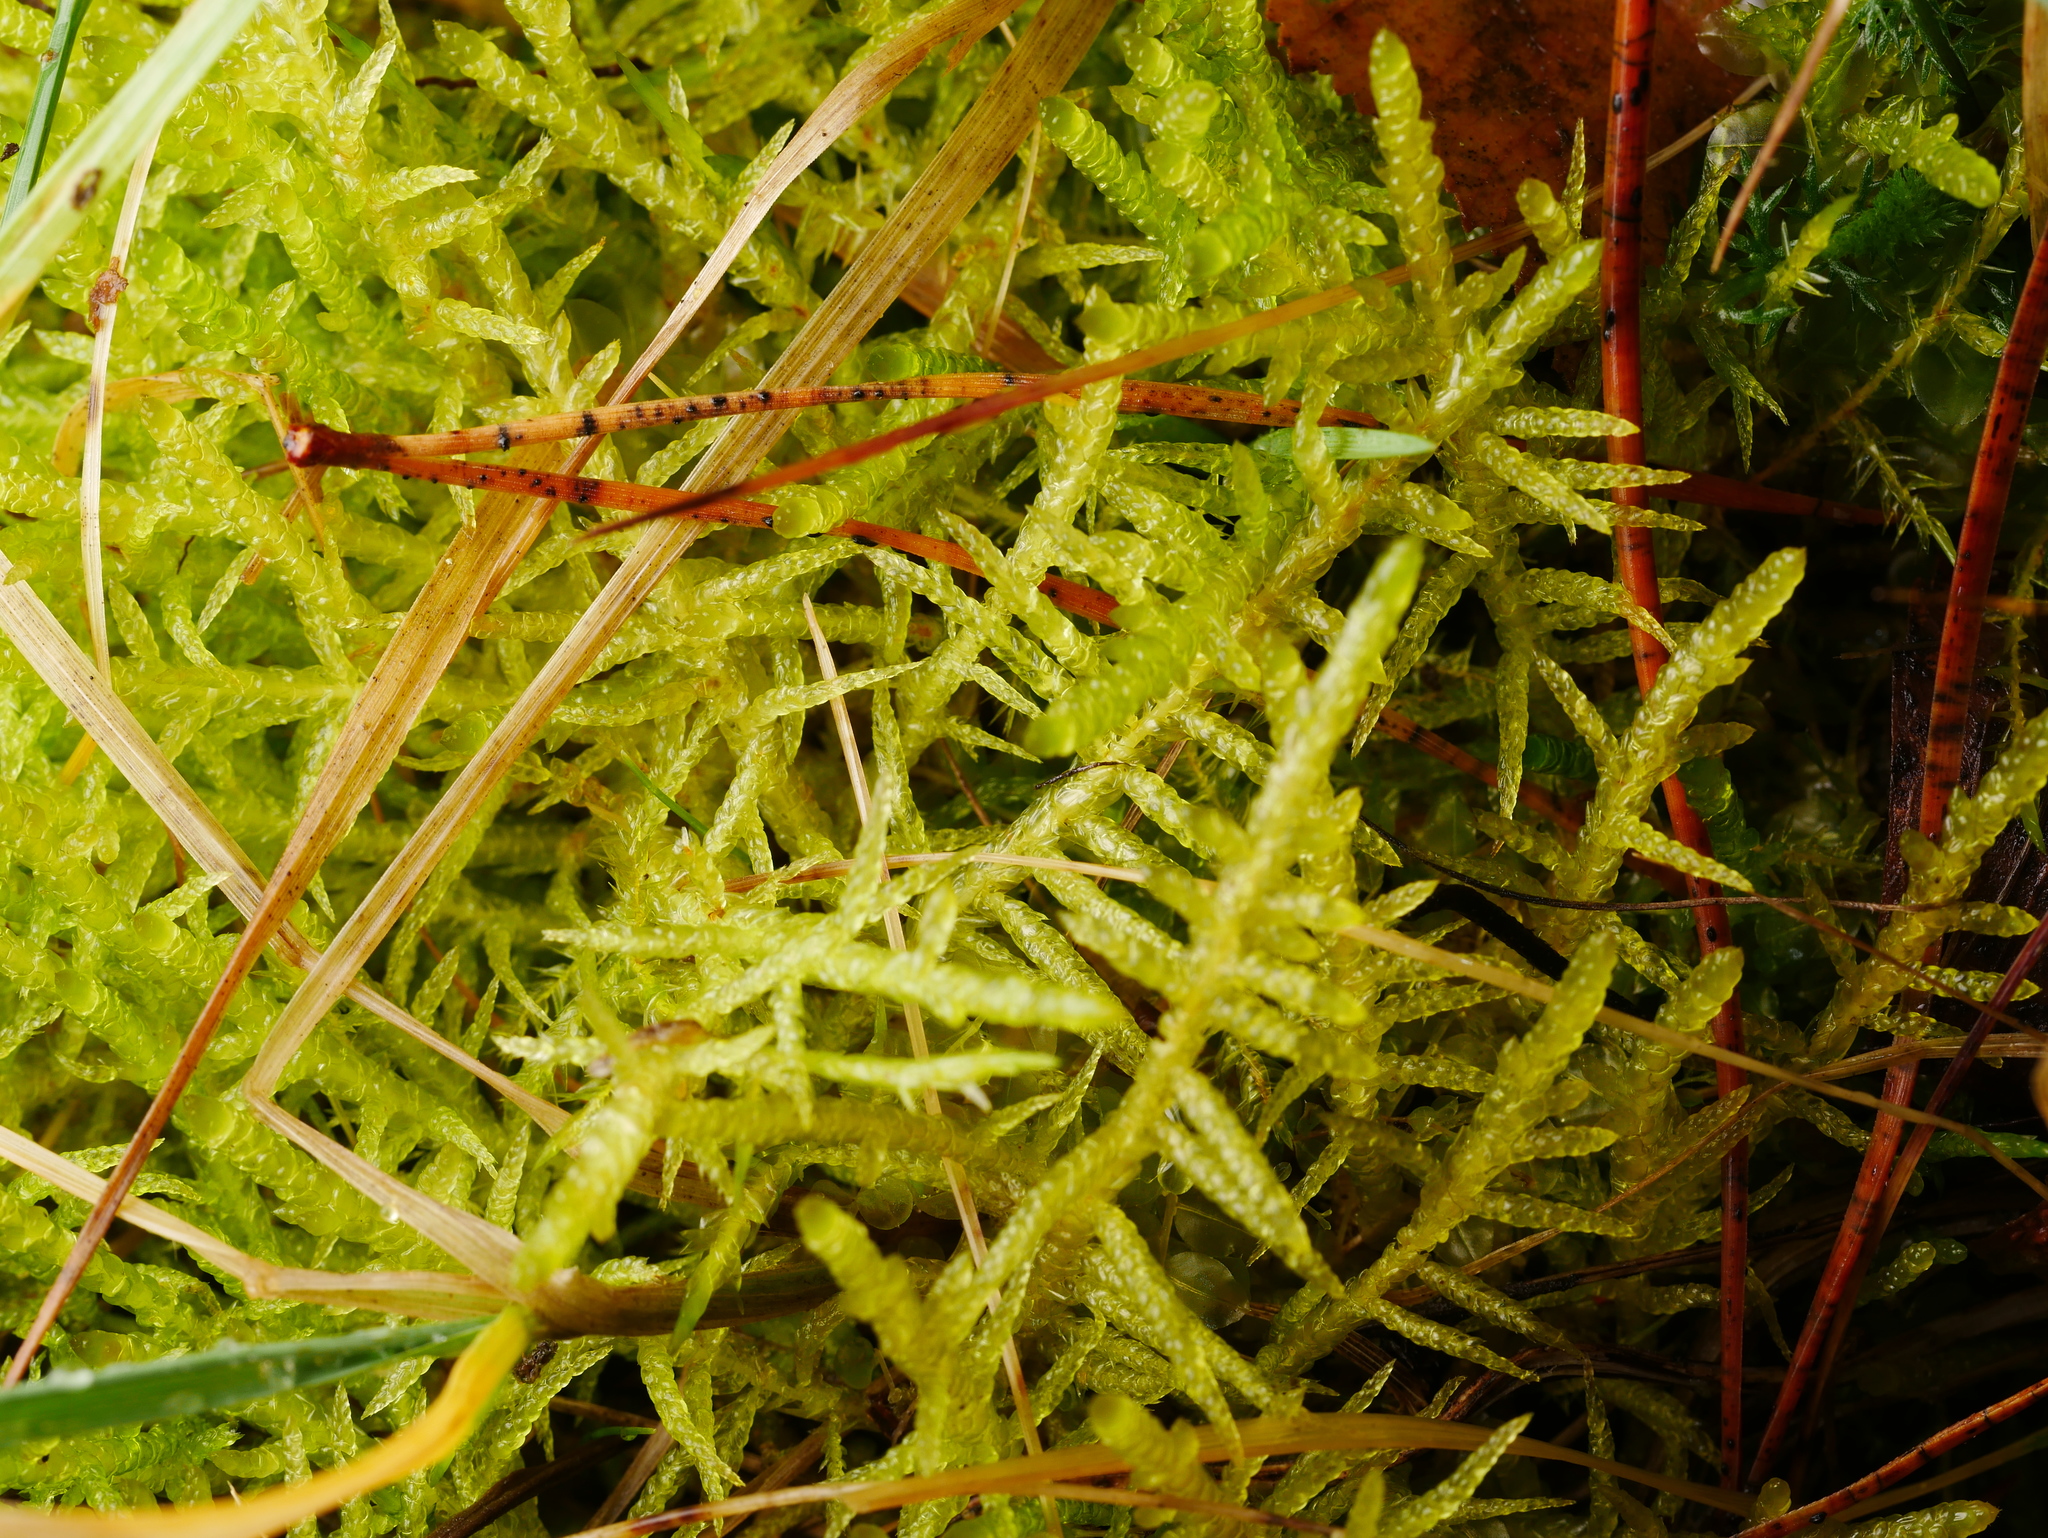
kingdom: Plantae
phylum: Bryophyta
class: Bryopsida
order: Hypnales
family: Brachytheciaceae
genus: Pseudoscleropodium
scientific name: Pseudoscleropodium purum
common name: Neat feather-moss
